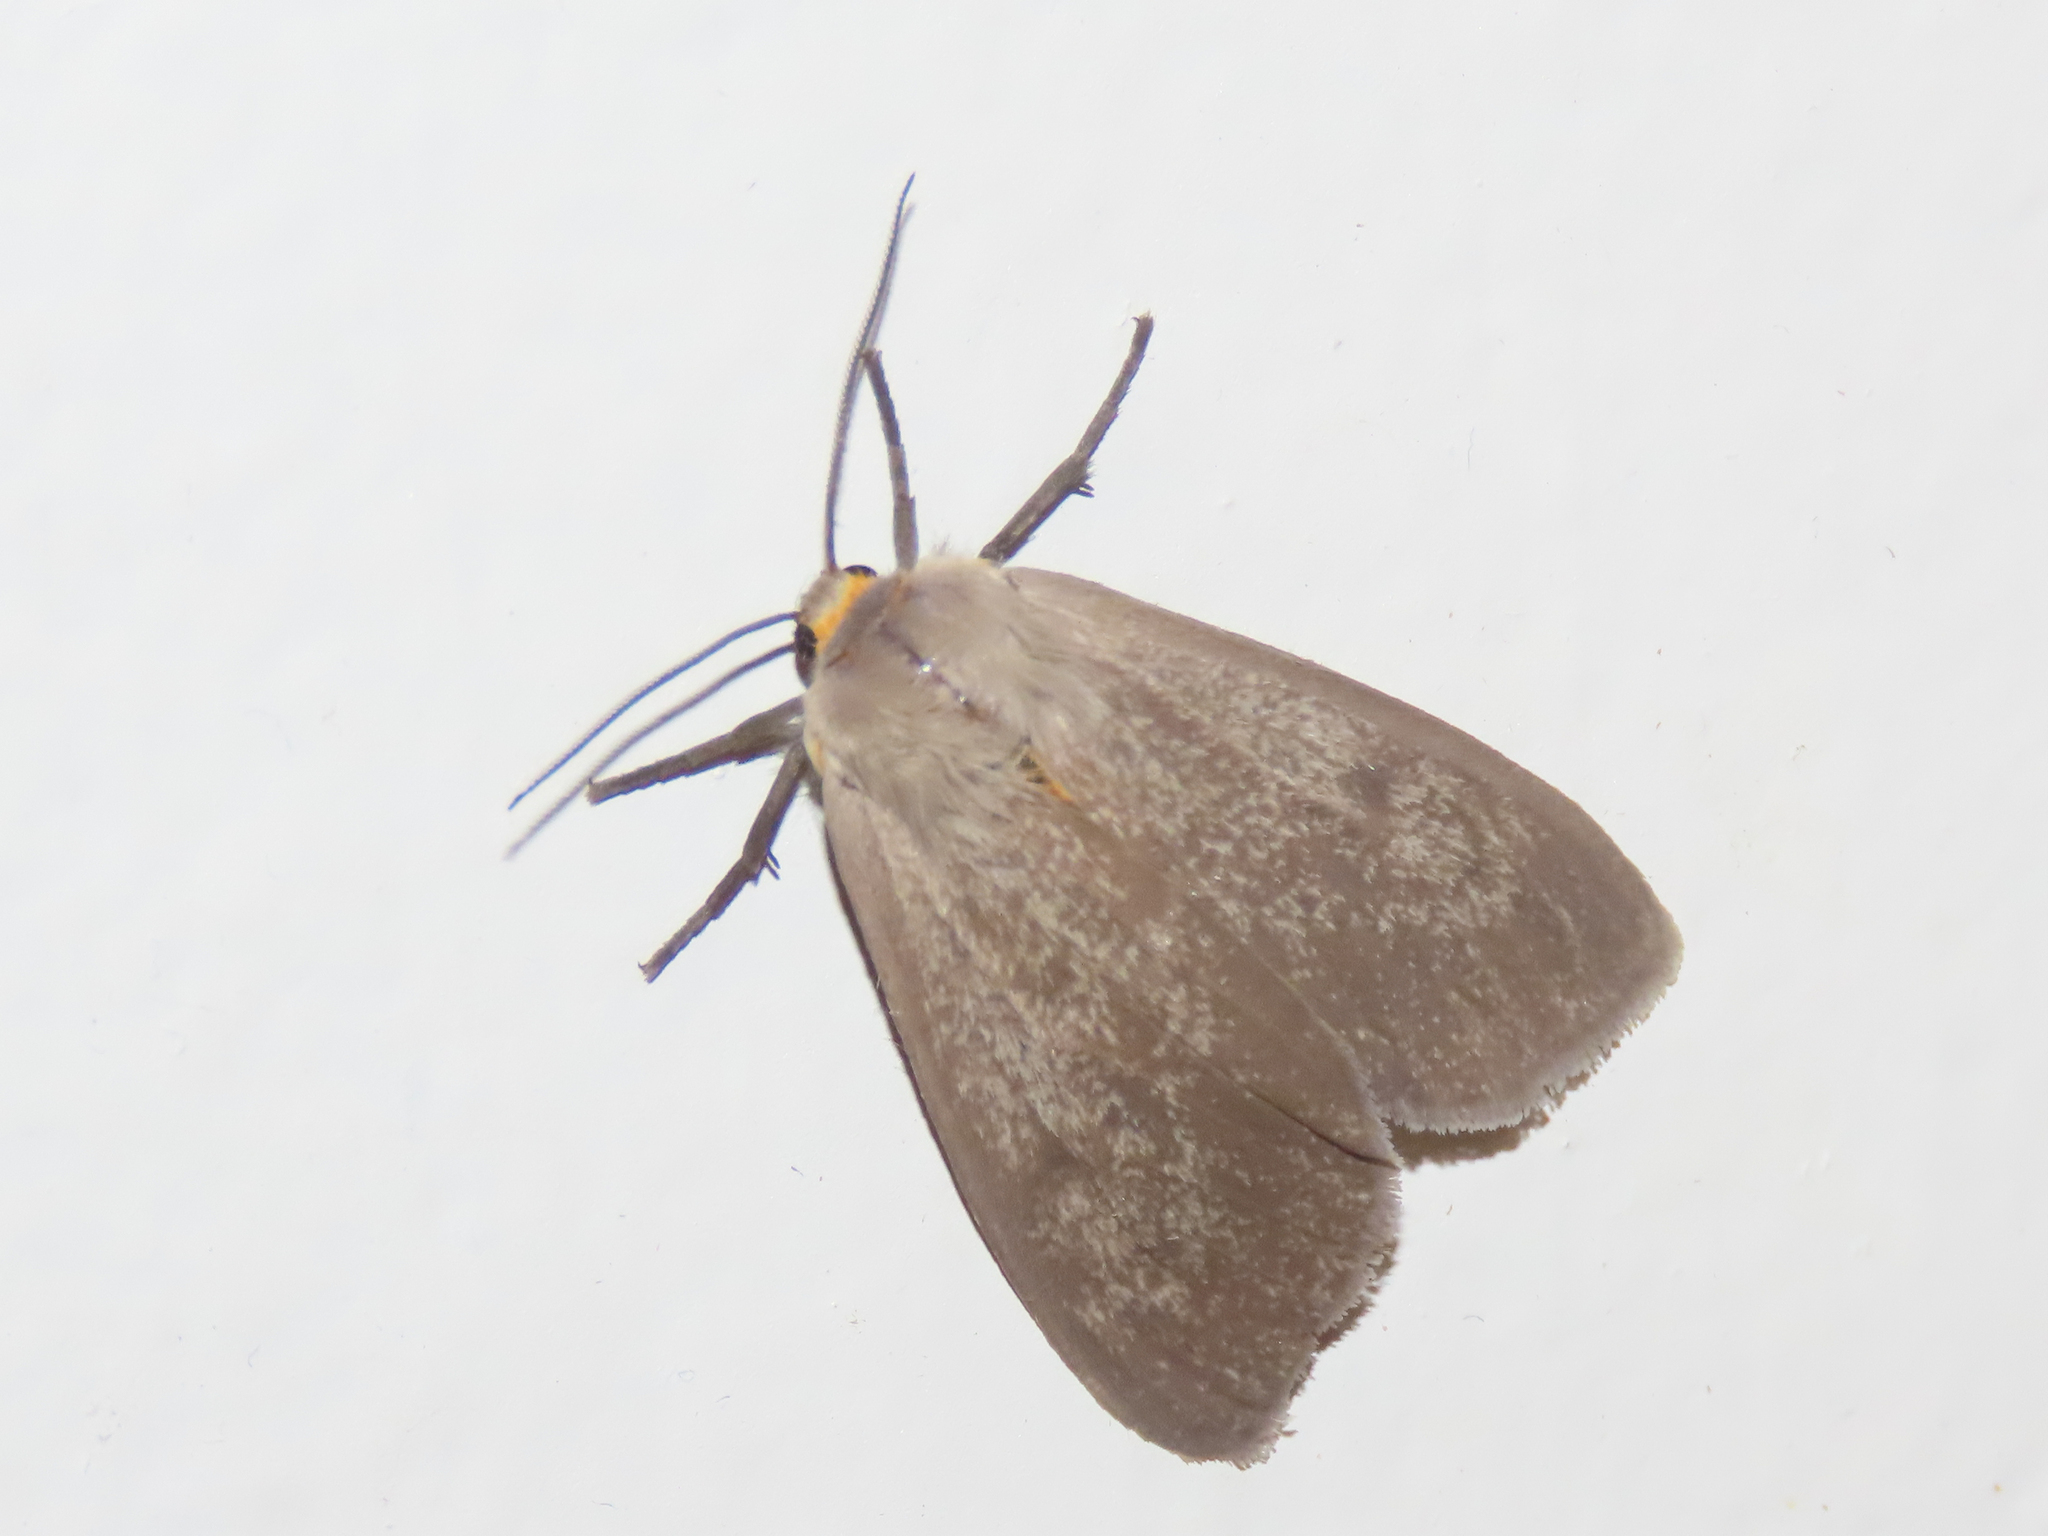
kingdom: Animalia
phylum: Arthropoda
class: Insecta
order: Lepidoptera
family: Erebidae
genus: Euchaetes
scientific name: Euchaetes egle
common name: Milkweed tussock moth
